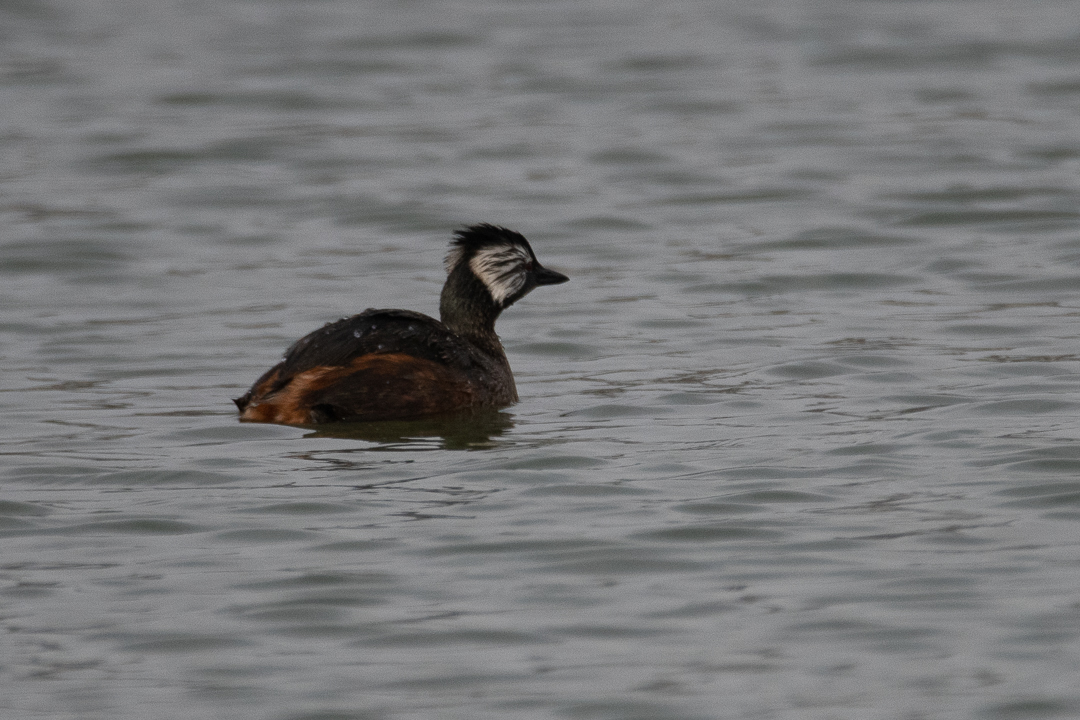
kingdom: Animalia
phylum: Chordata
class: Aves
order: Podicipediformes
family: Podicipedidae
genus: Rollandia
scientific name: Rollandia rolland
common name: White-tufted grebe
